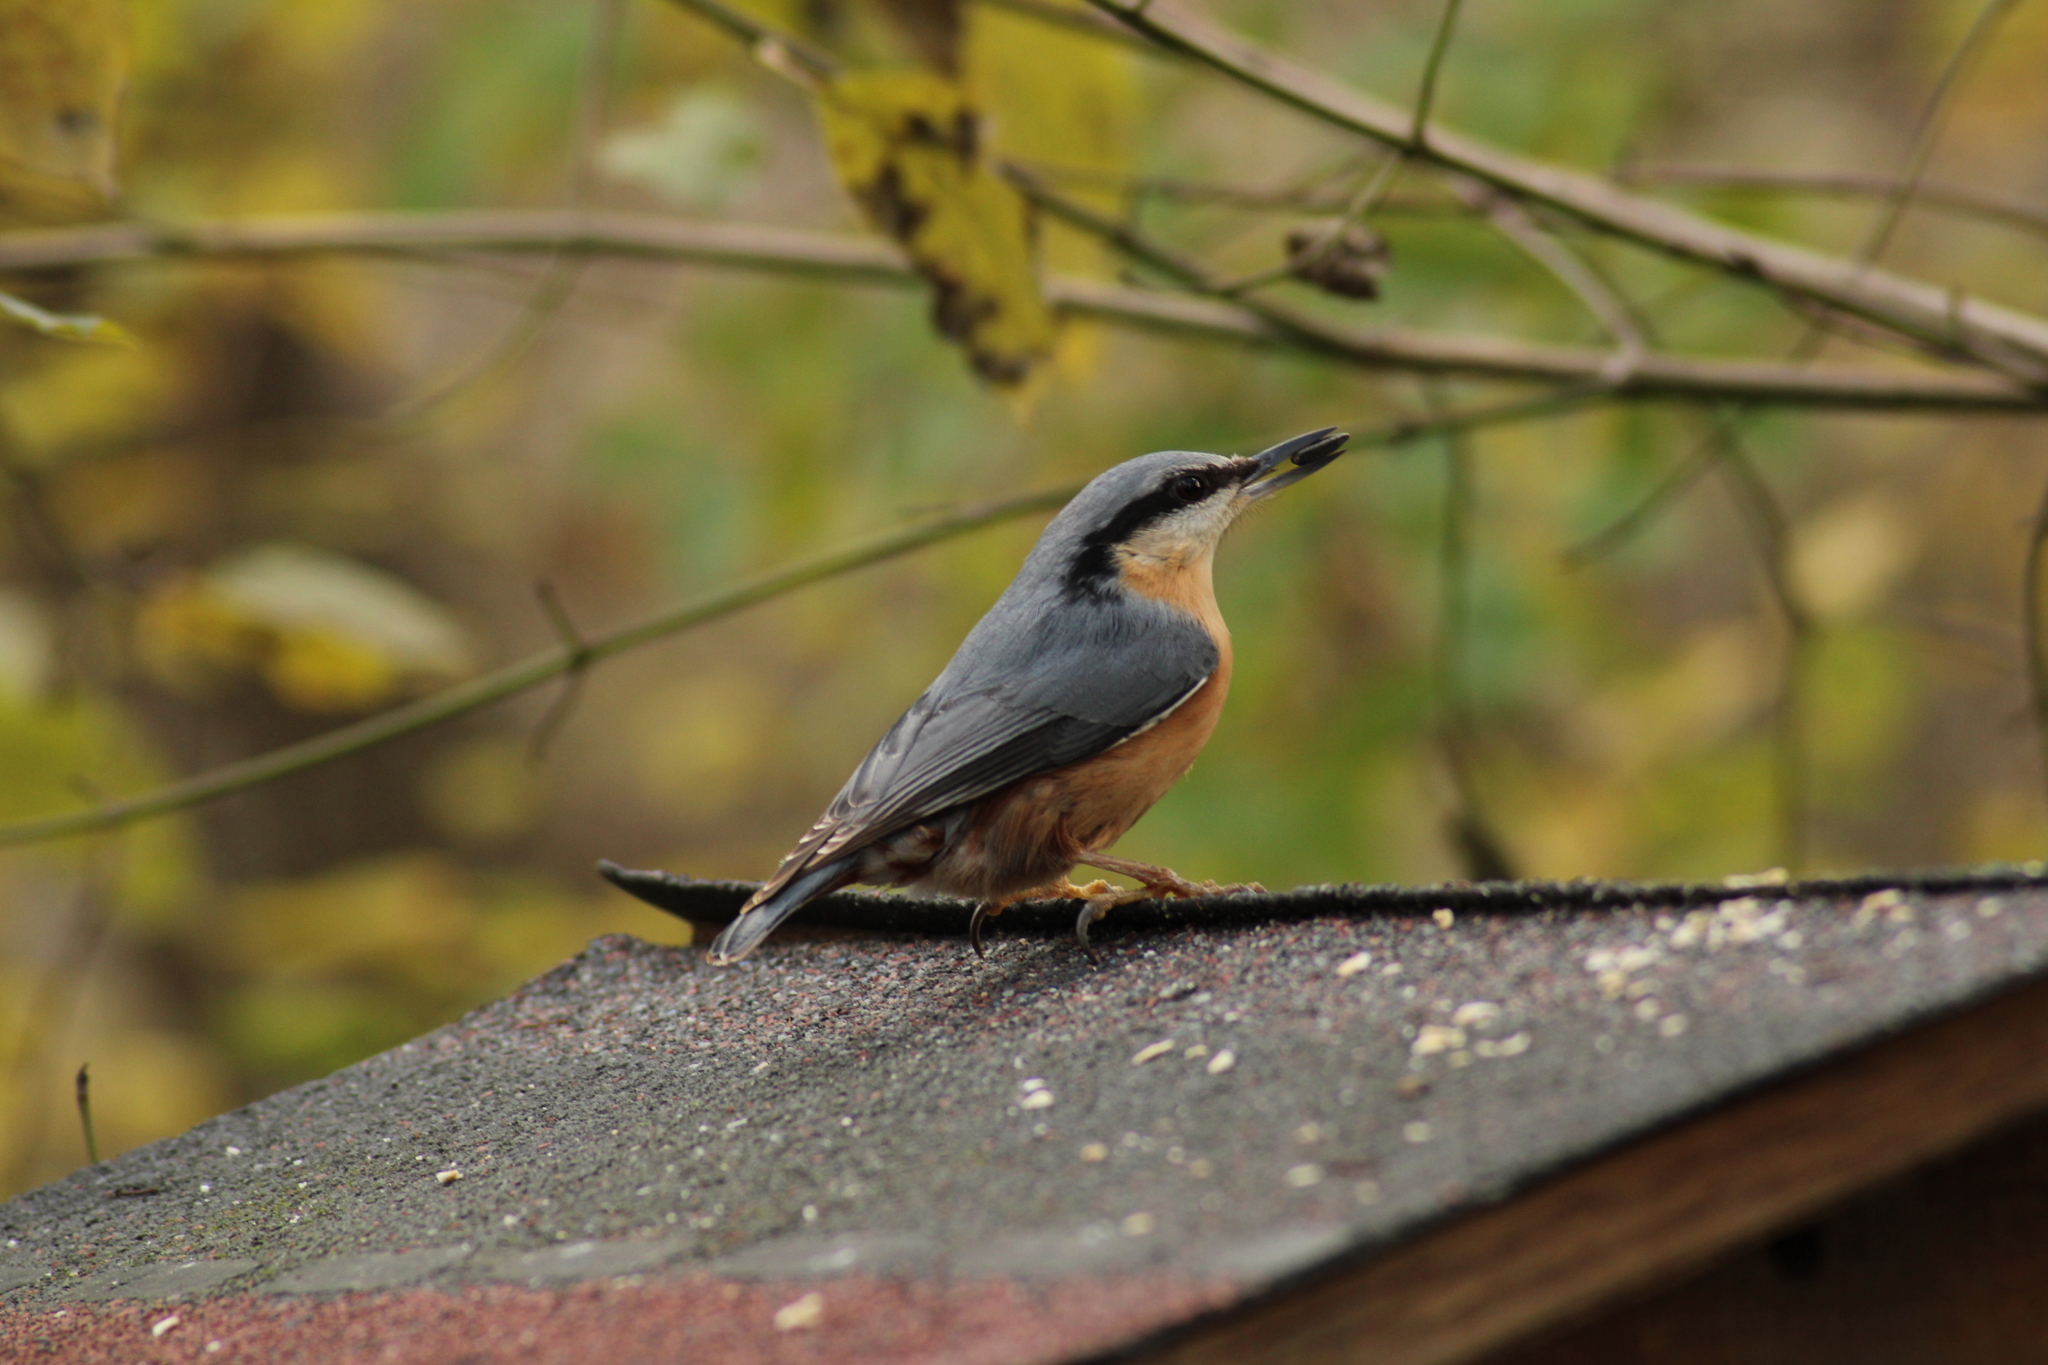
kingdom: Animalia
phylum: Chordata
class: Aves
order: Passeriformes
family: Sittidae
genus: Sitta
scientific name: Sitta europaea
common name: Eurasian nuthatch
